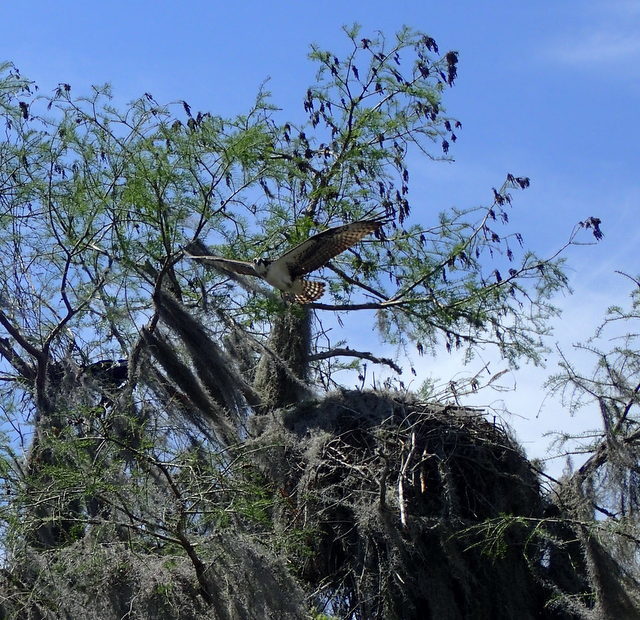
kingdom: Animalia
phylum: Chordata
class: Aves
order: Accipitriformes
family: Pandionidae
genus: Pandion
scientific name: Pandion haliaetus
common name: Osprey
